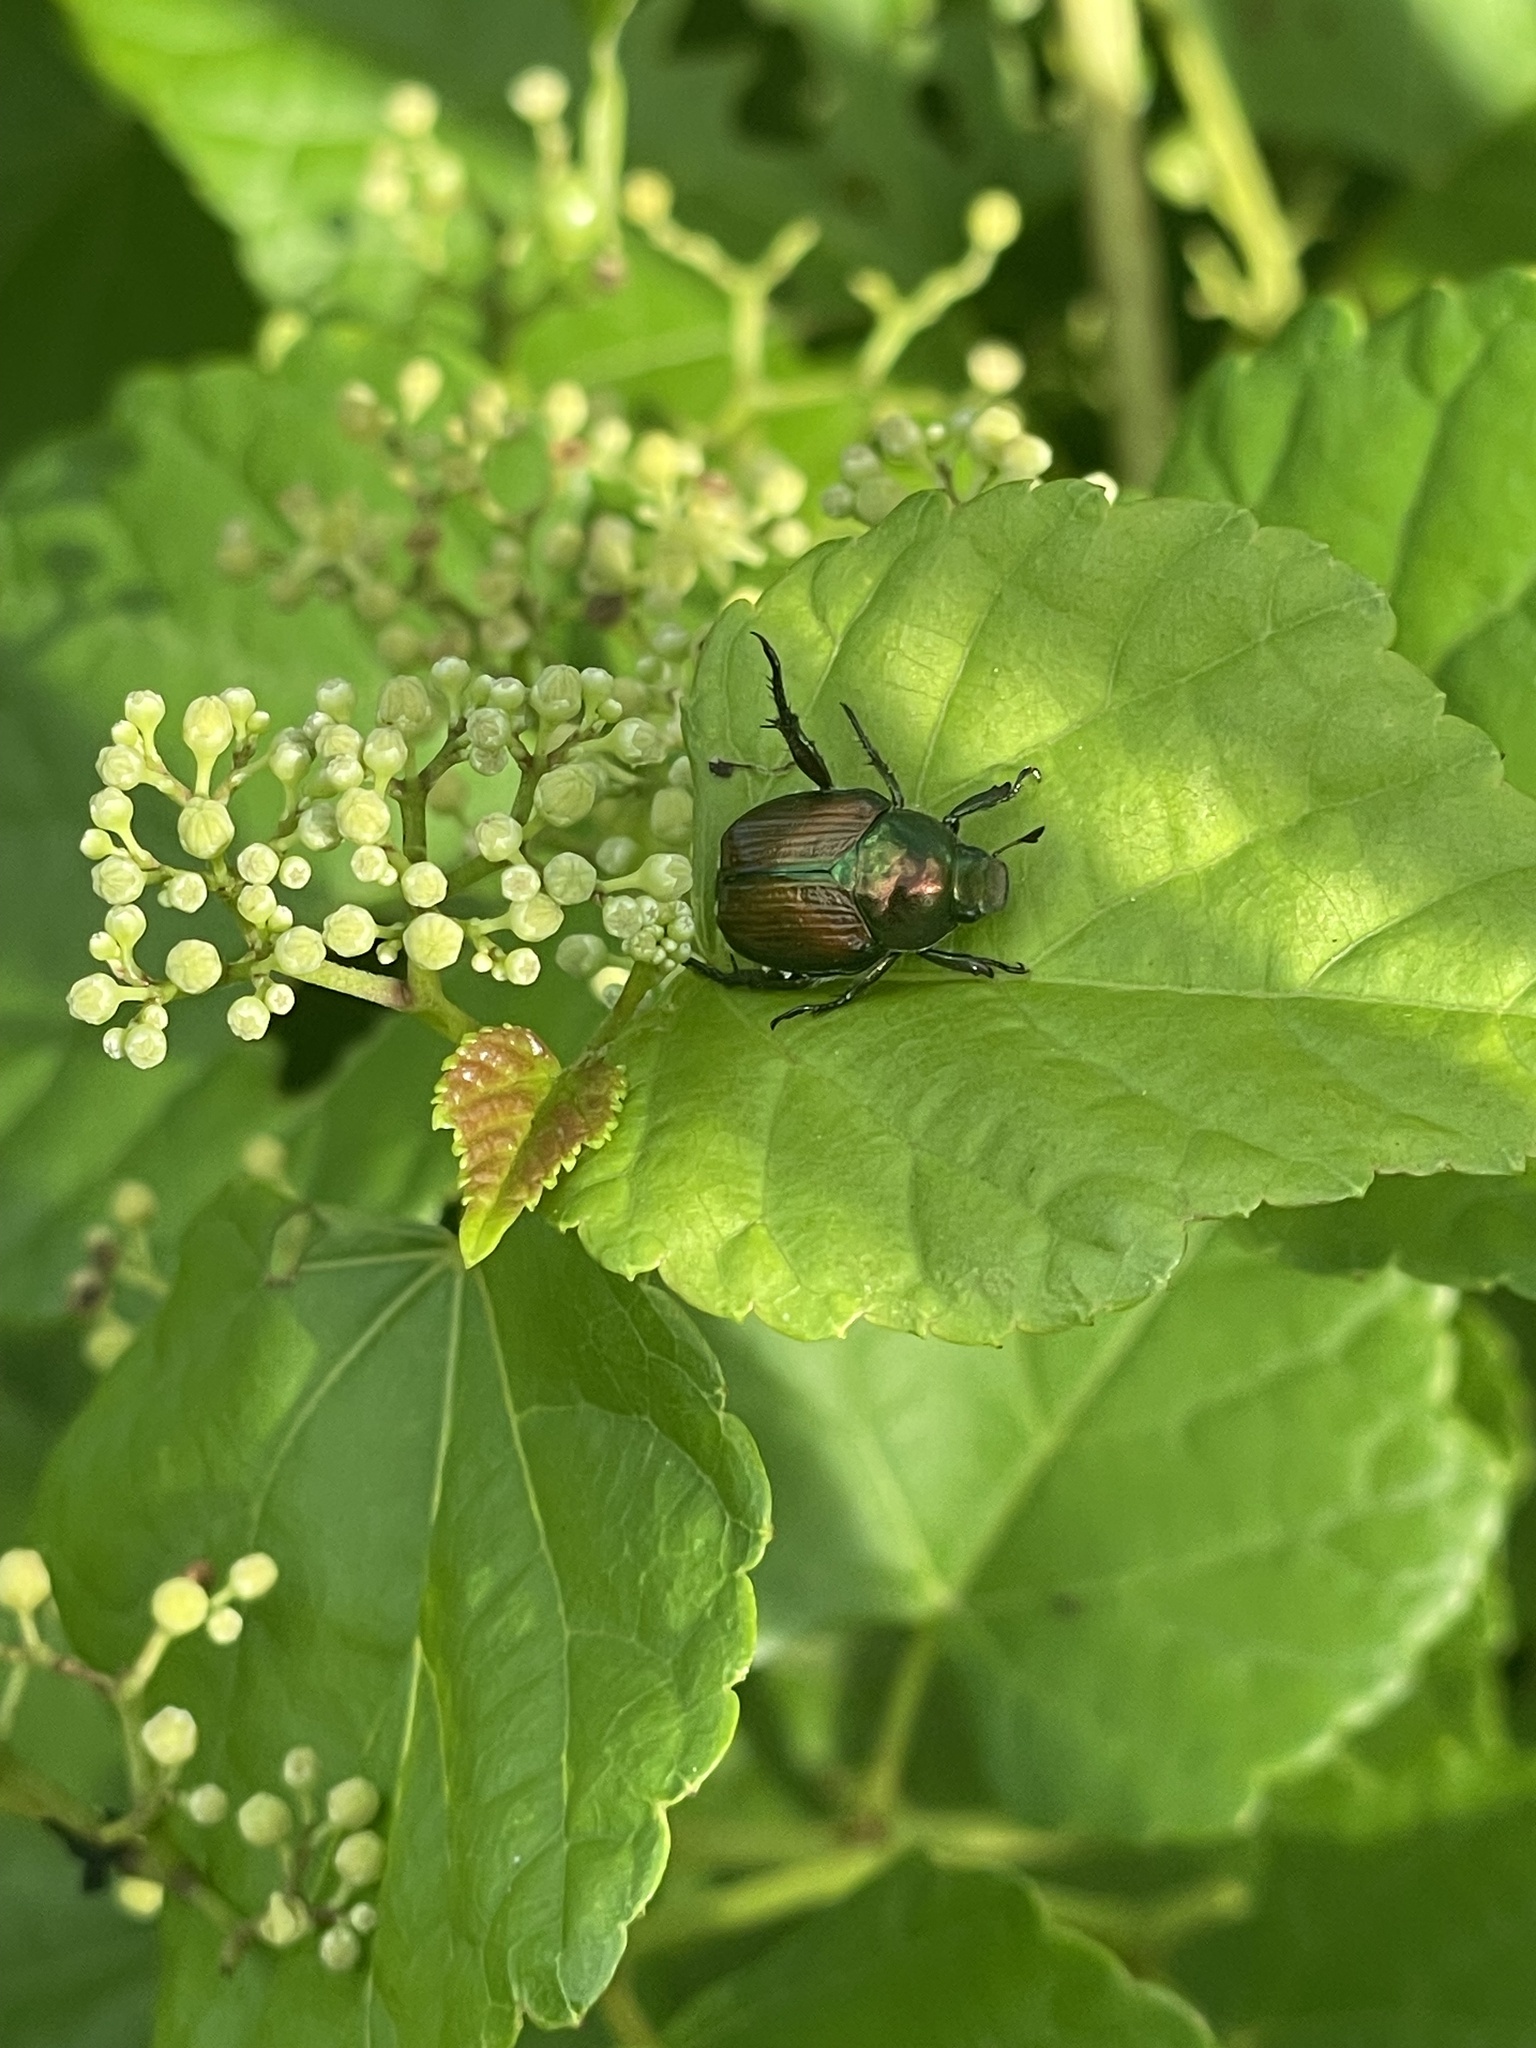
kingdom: Animalia
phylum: Arthropoda
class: Insecta
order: Coleoptera
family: Scarabaeidae
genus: Popillia
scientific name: Popillia japonica
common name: Japanese beetle
